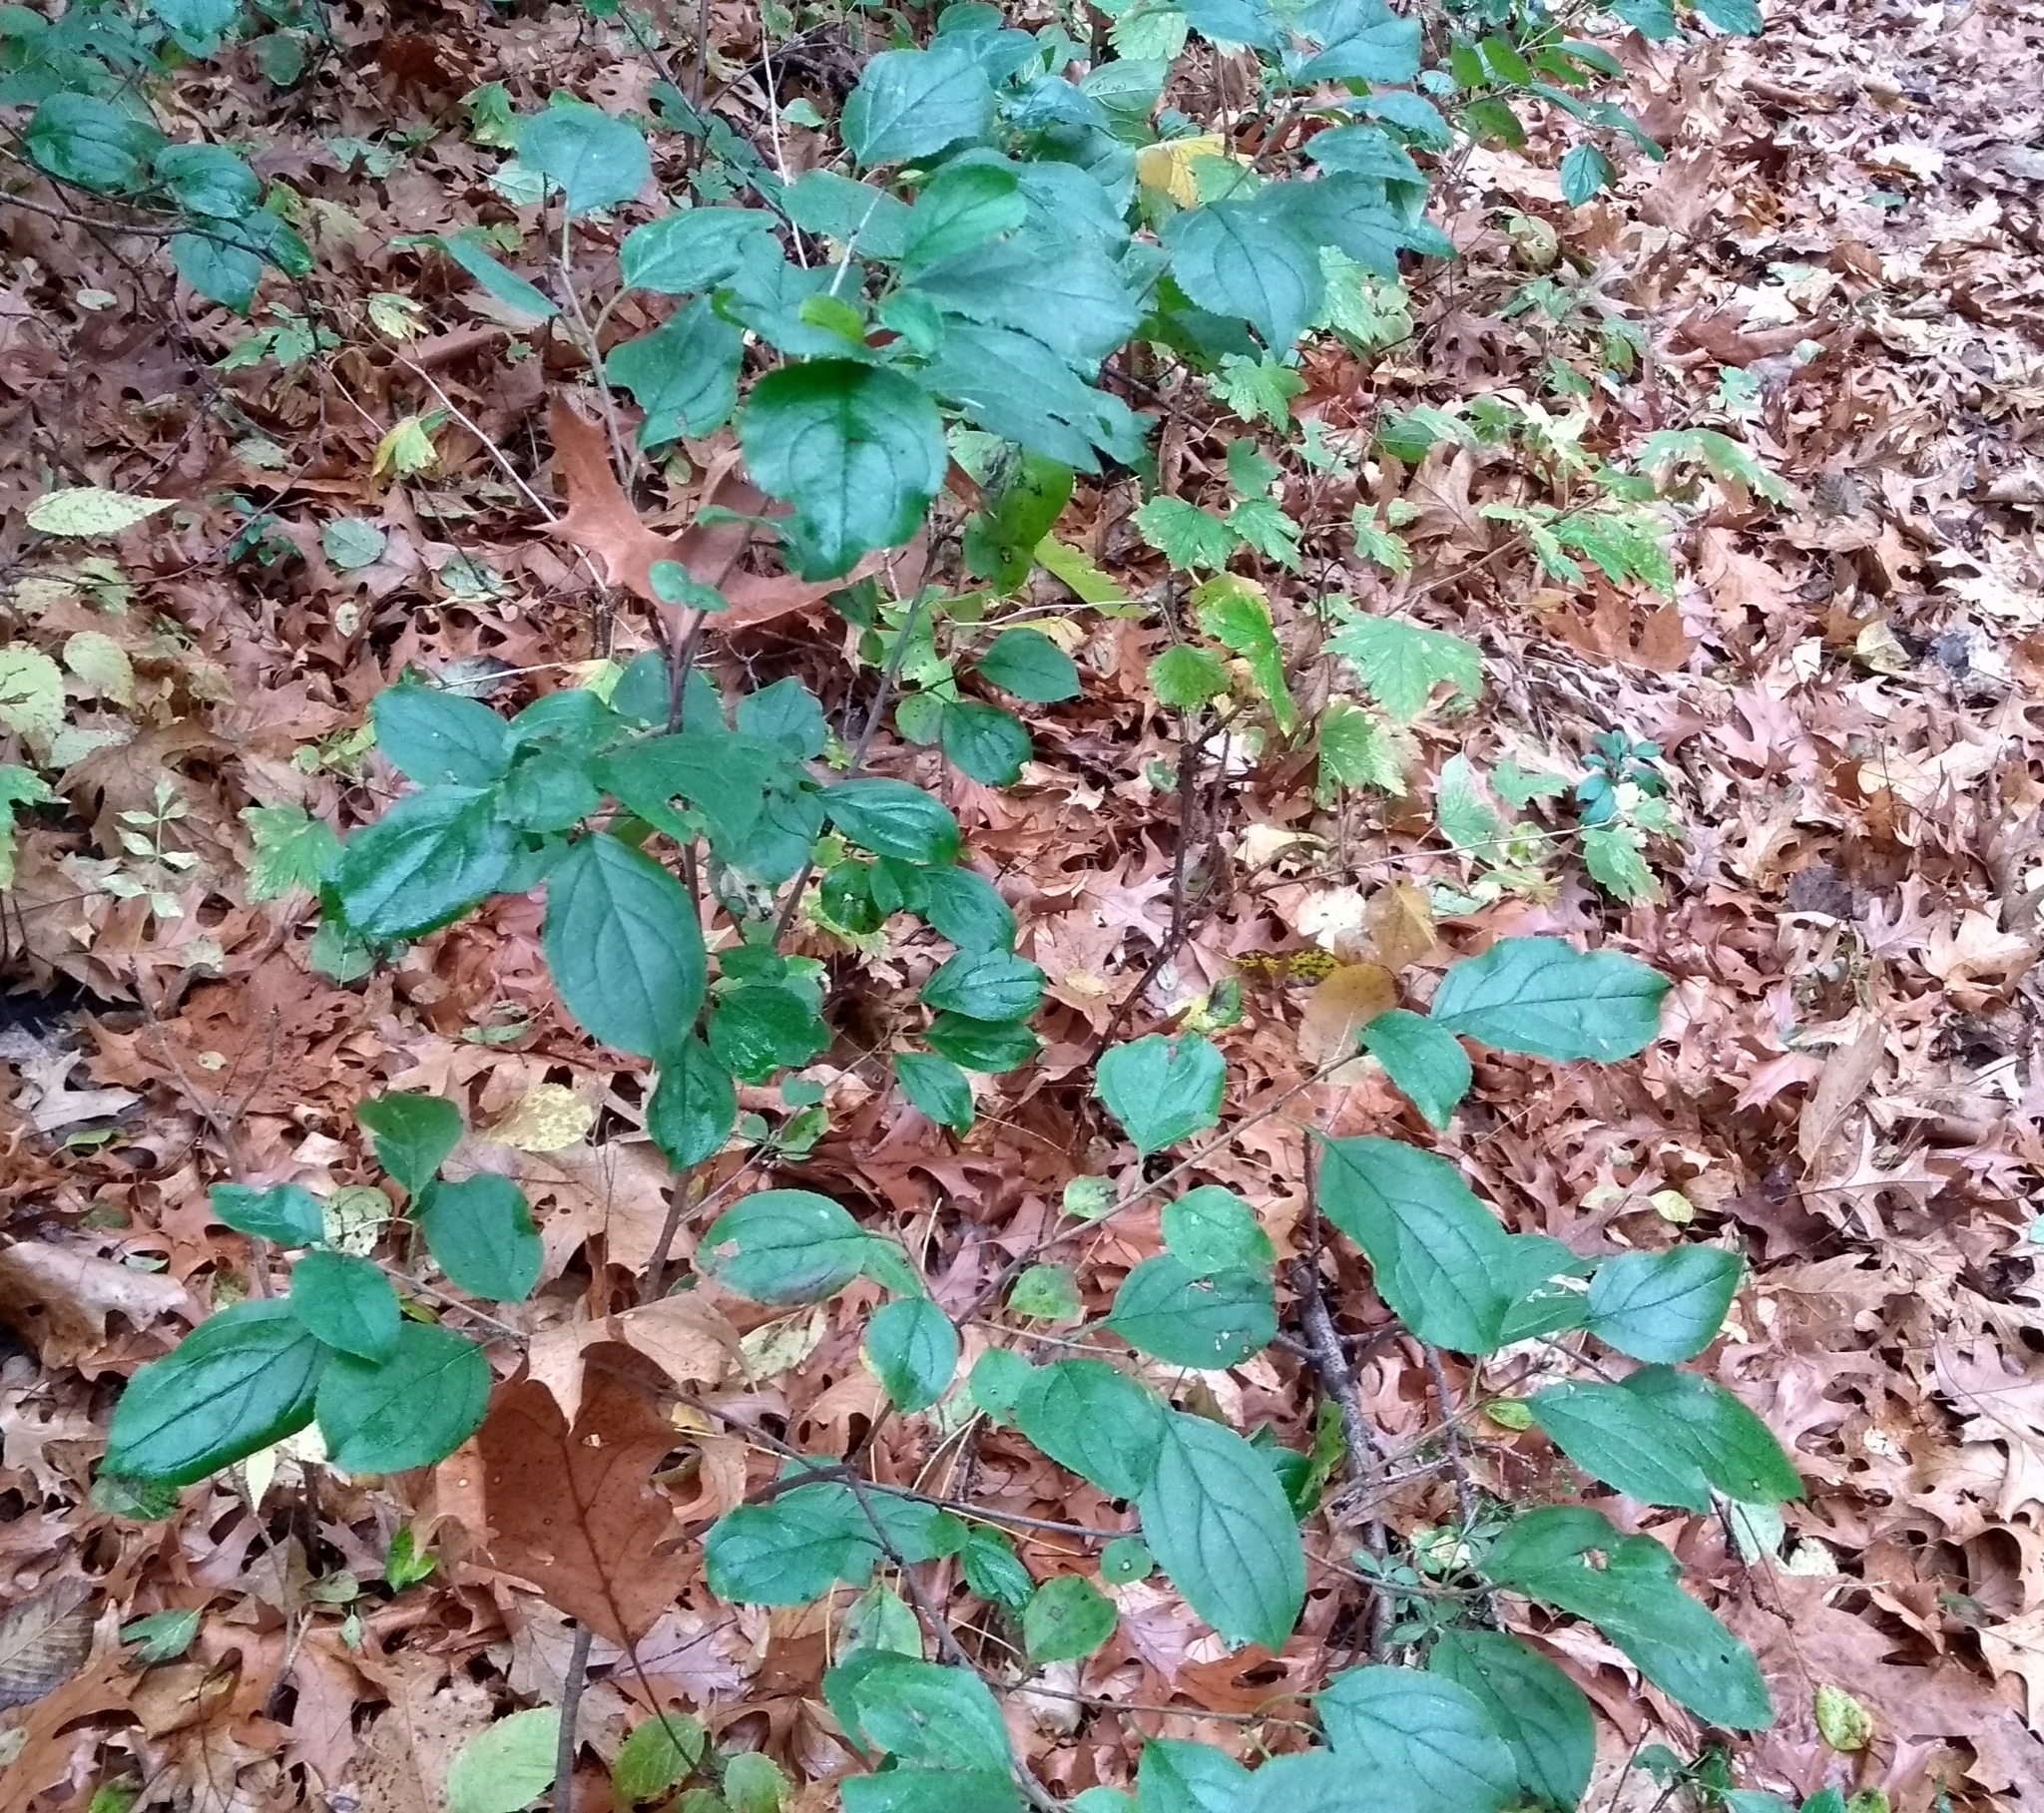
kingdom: Plantae
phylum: Tracheophyta
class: Magnoliopsida
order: Rosales
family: Rhamnaceae
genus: Rhamnus
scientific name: Rhamnus cathartica
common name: Common buckthorn
